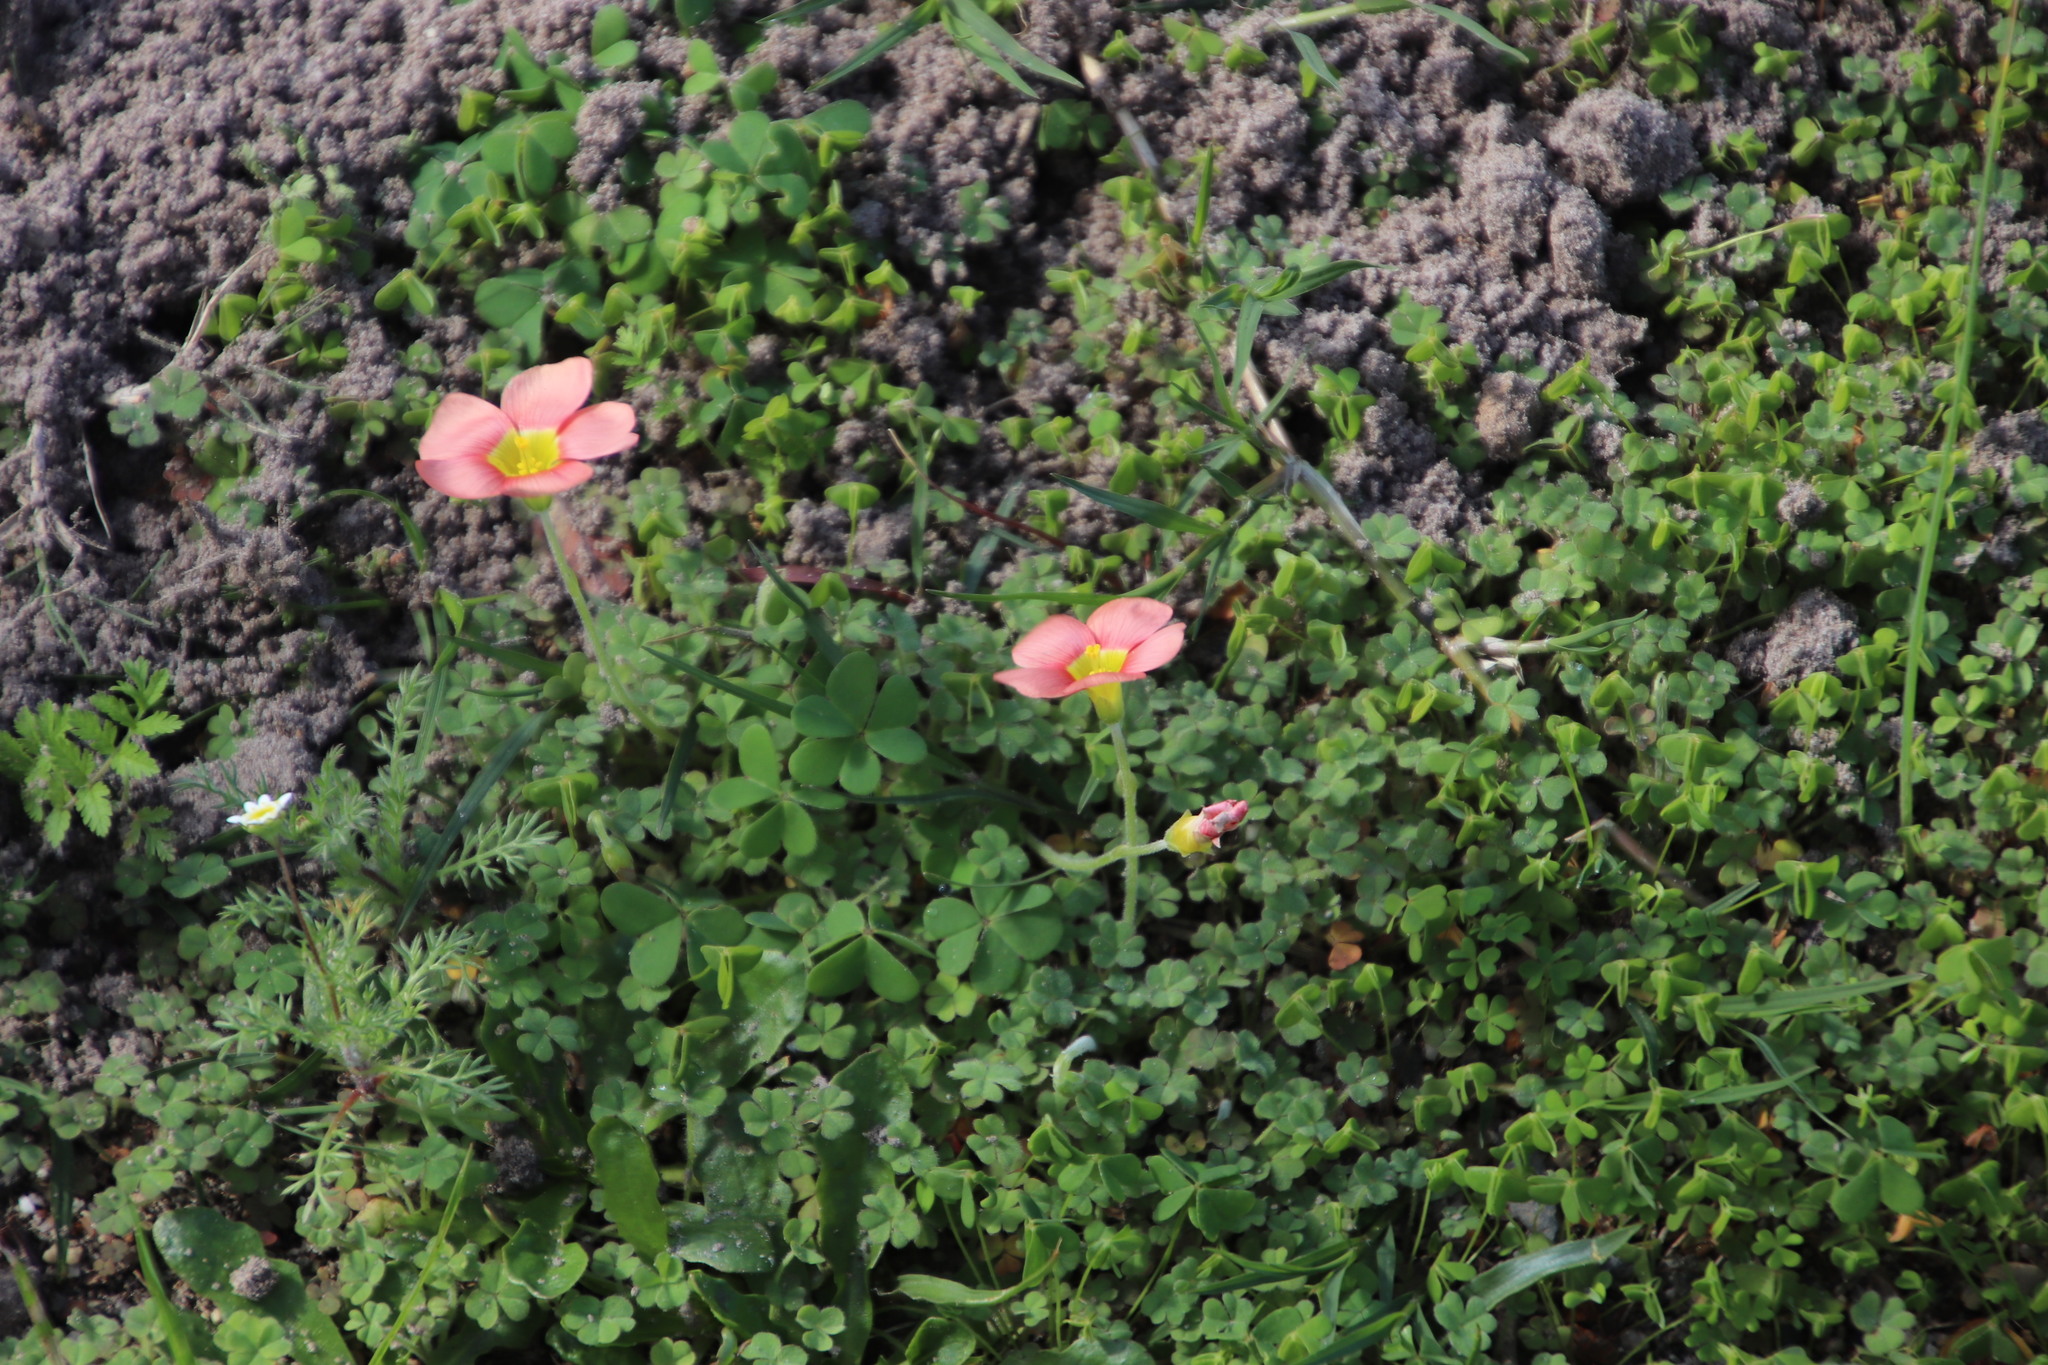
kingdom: Plantae
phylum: Tracheophyta
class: Magnoliopsida
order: Oxalidales
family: Oxalidaceae
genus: Oxalis
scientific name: Oxalis obtusa
